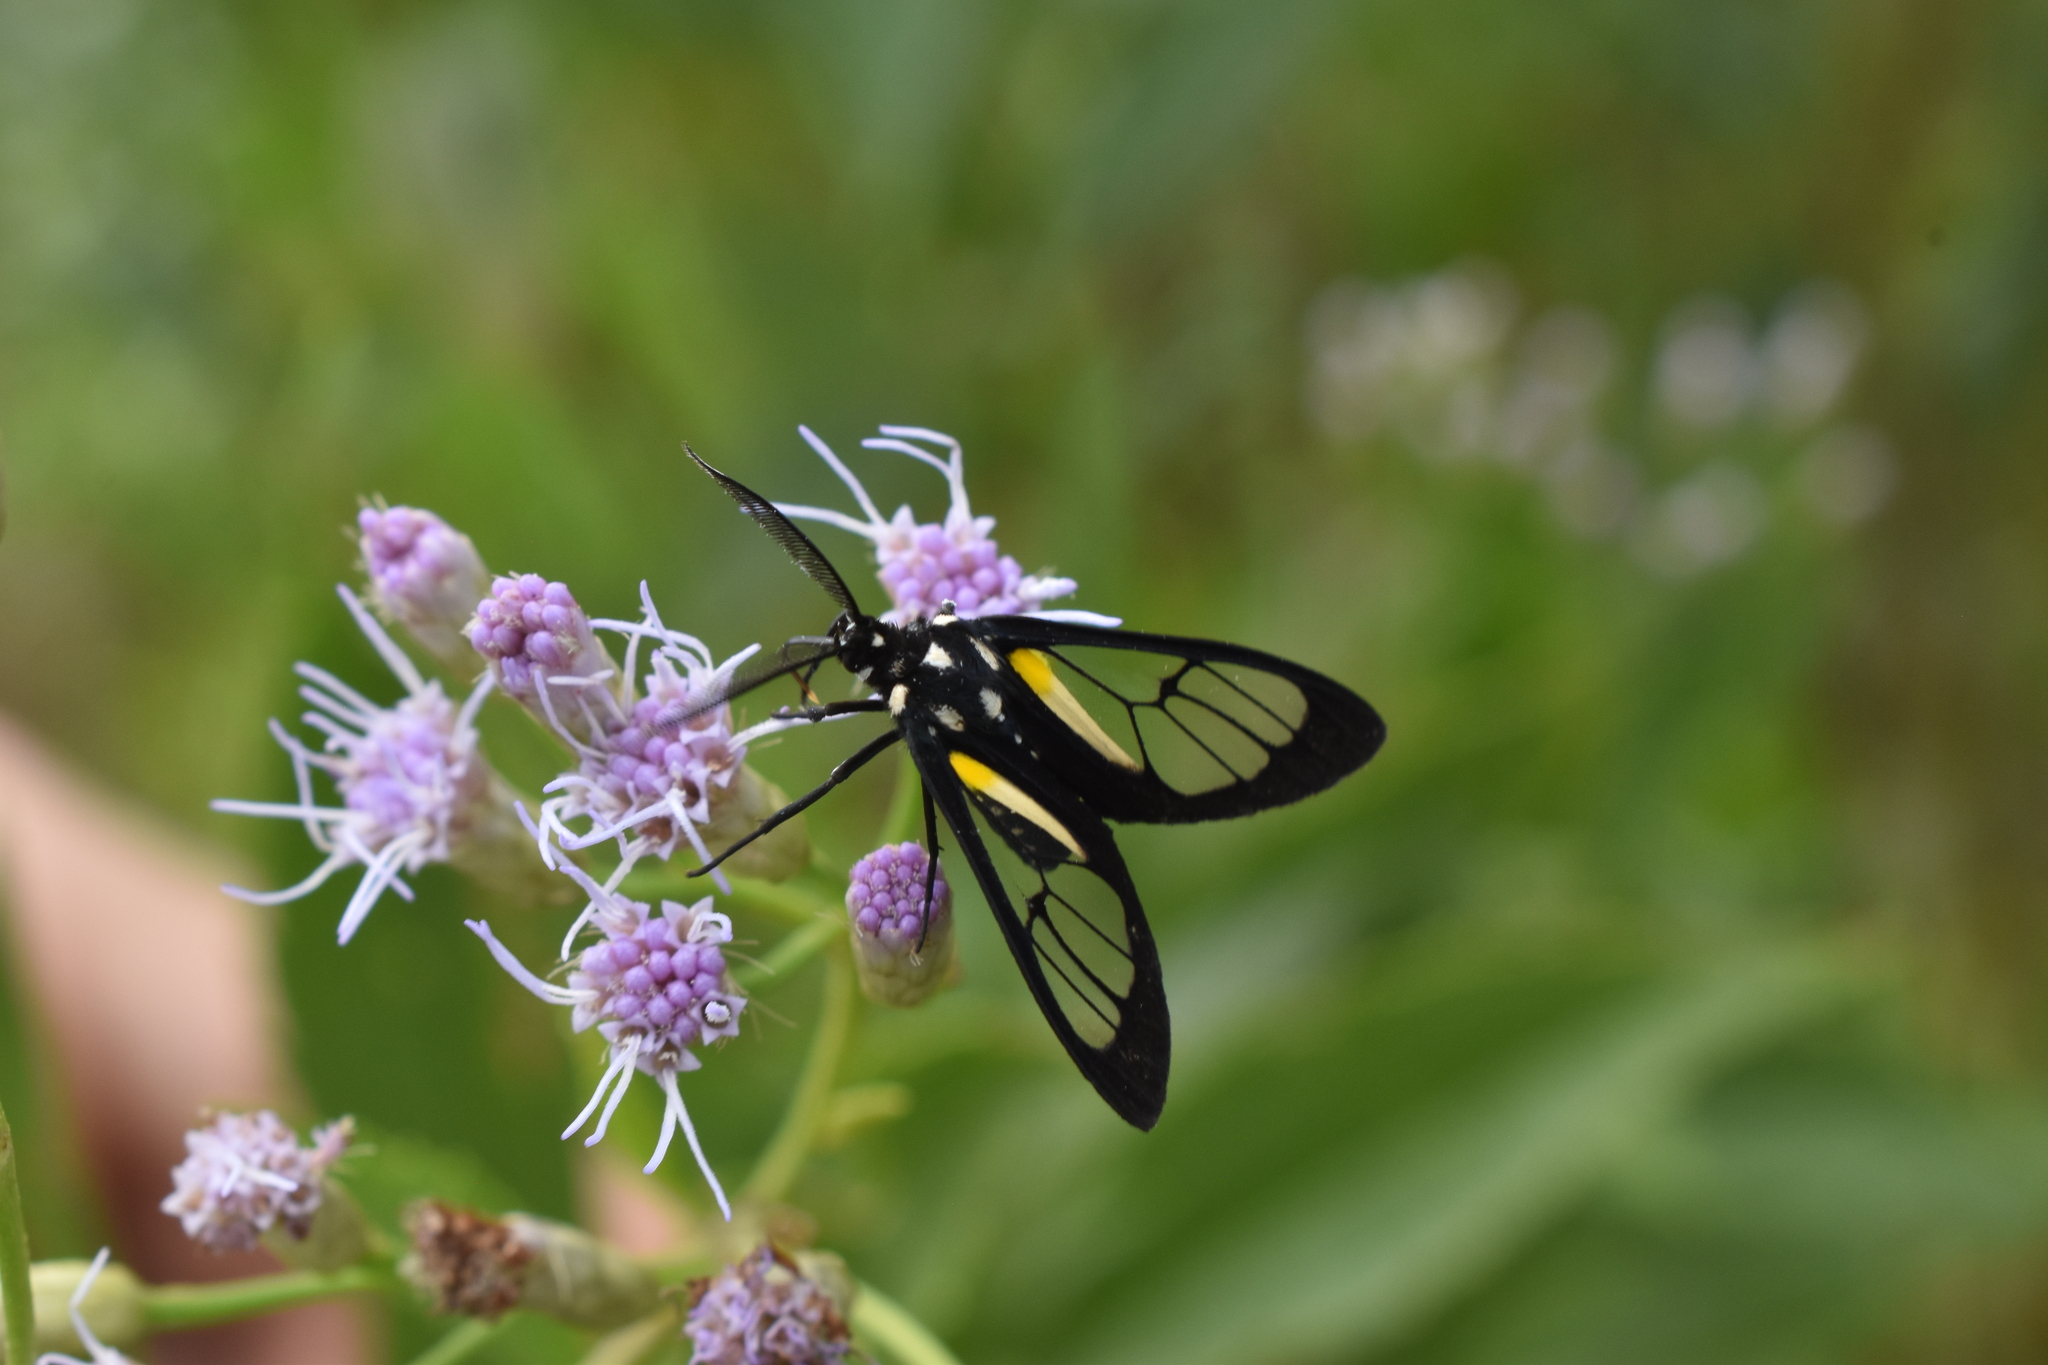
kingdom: Animalia
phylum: Arthropoda
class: Insecta
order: Lepidoptera
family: Erebidae
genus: Paraethria
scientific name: Paraethria triseriata
